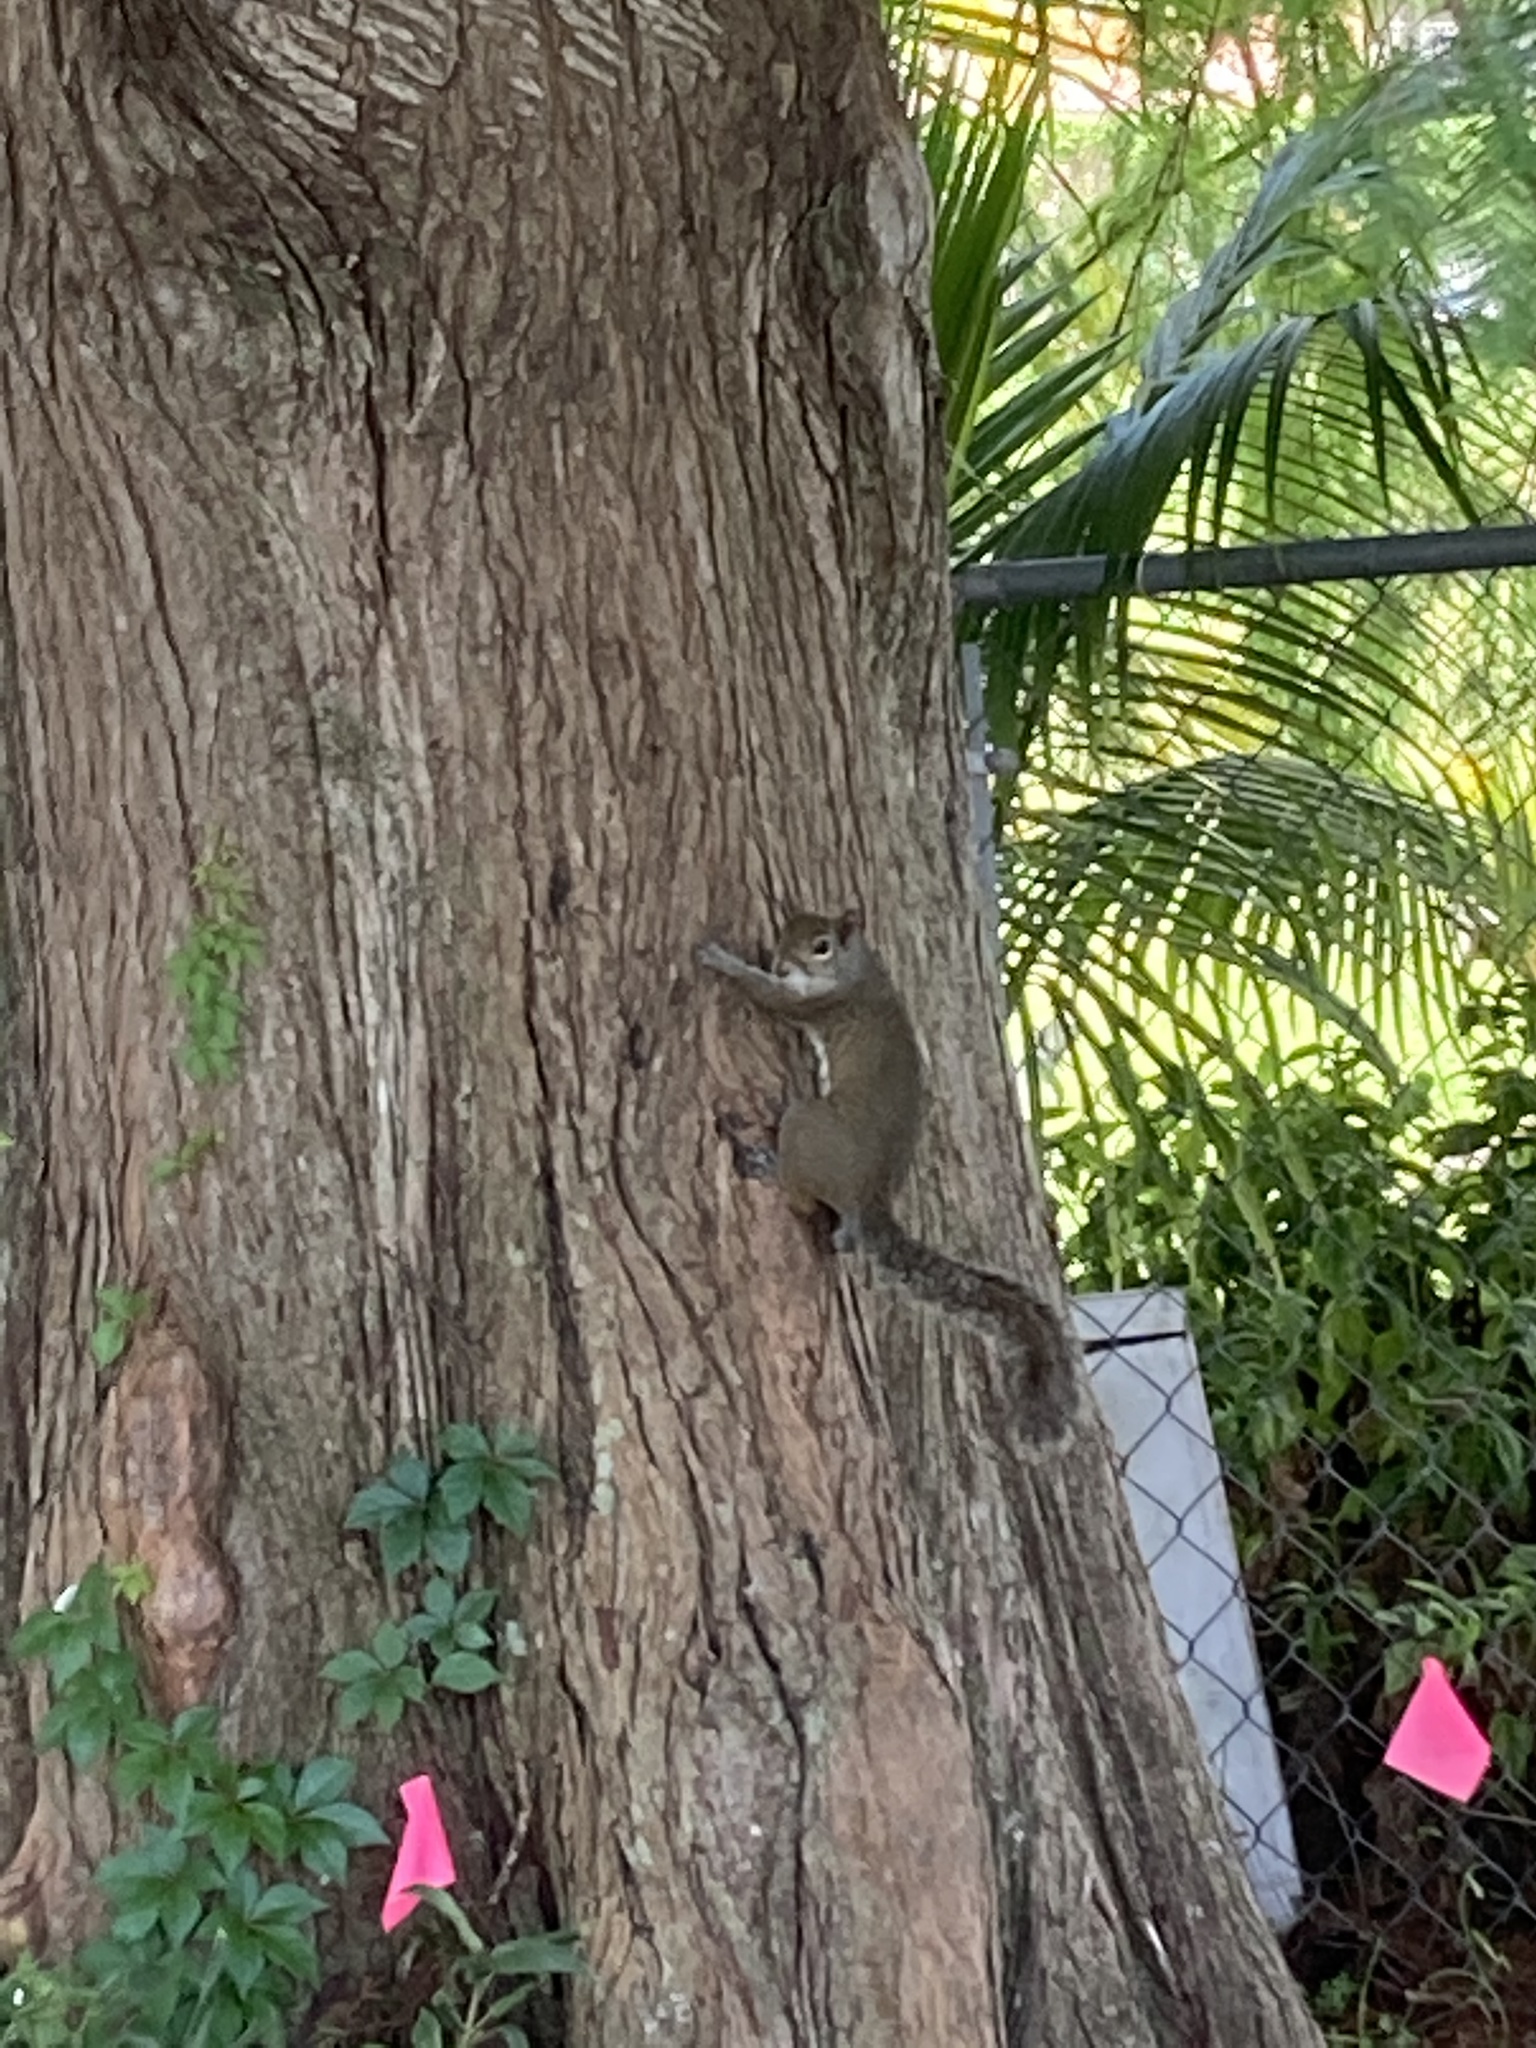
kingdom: Animalia
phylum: Chordata
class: Mammalia
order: Rodentia
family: Sciuridae
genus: Sciurus
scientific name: Sciurus carolinensis
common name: Eastern gray squirrel
